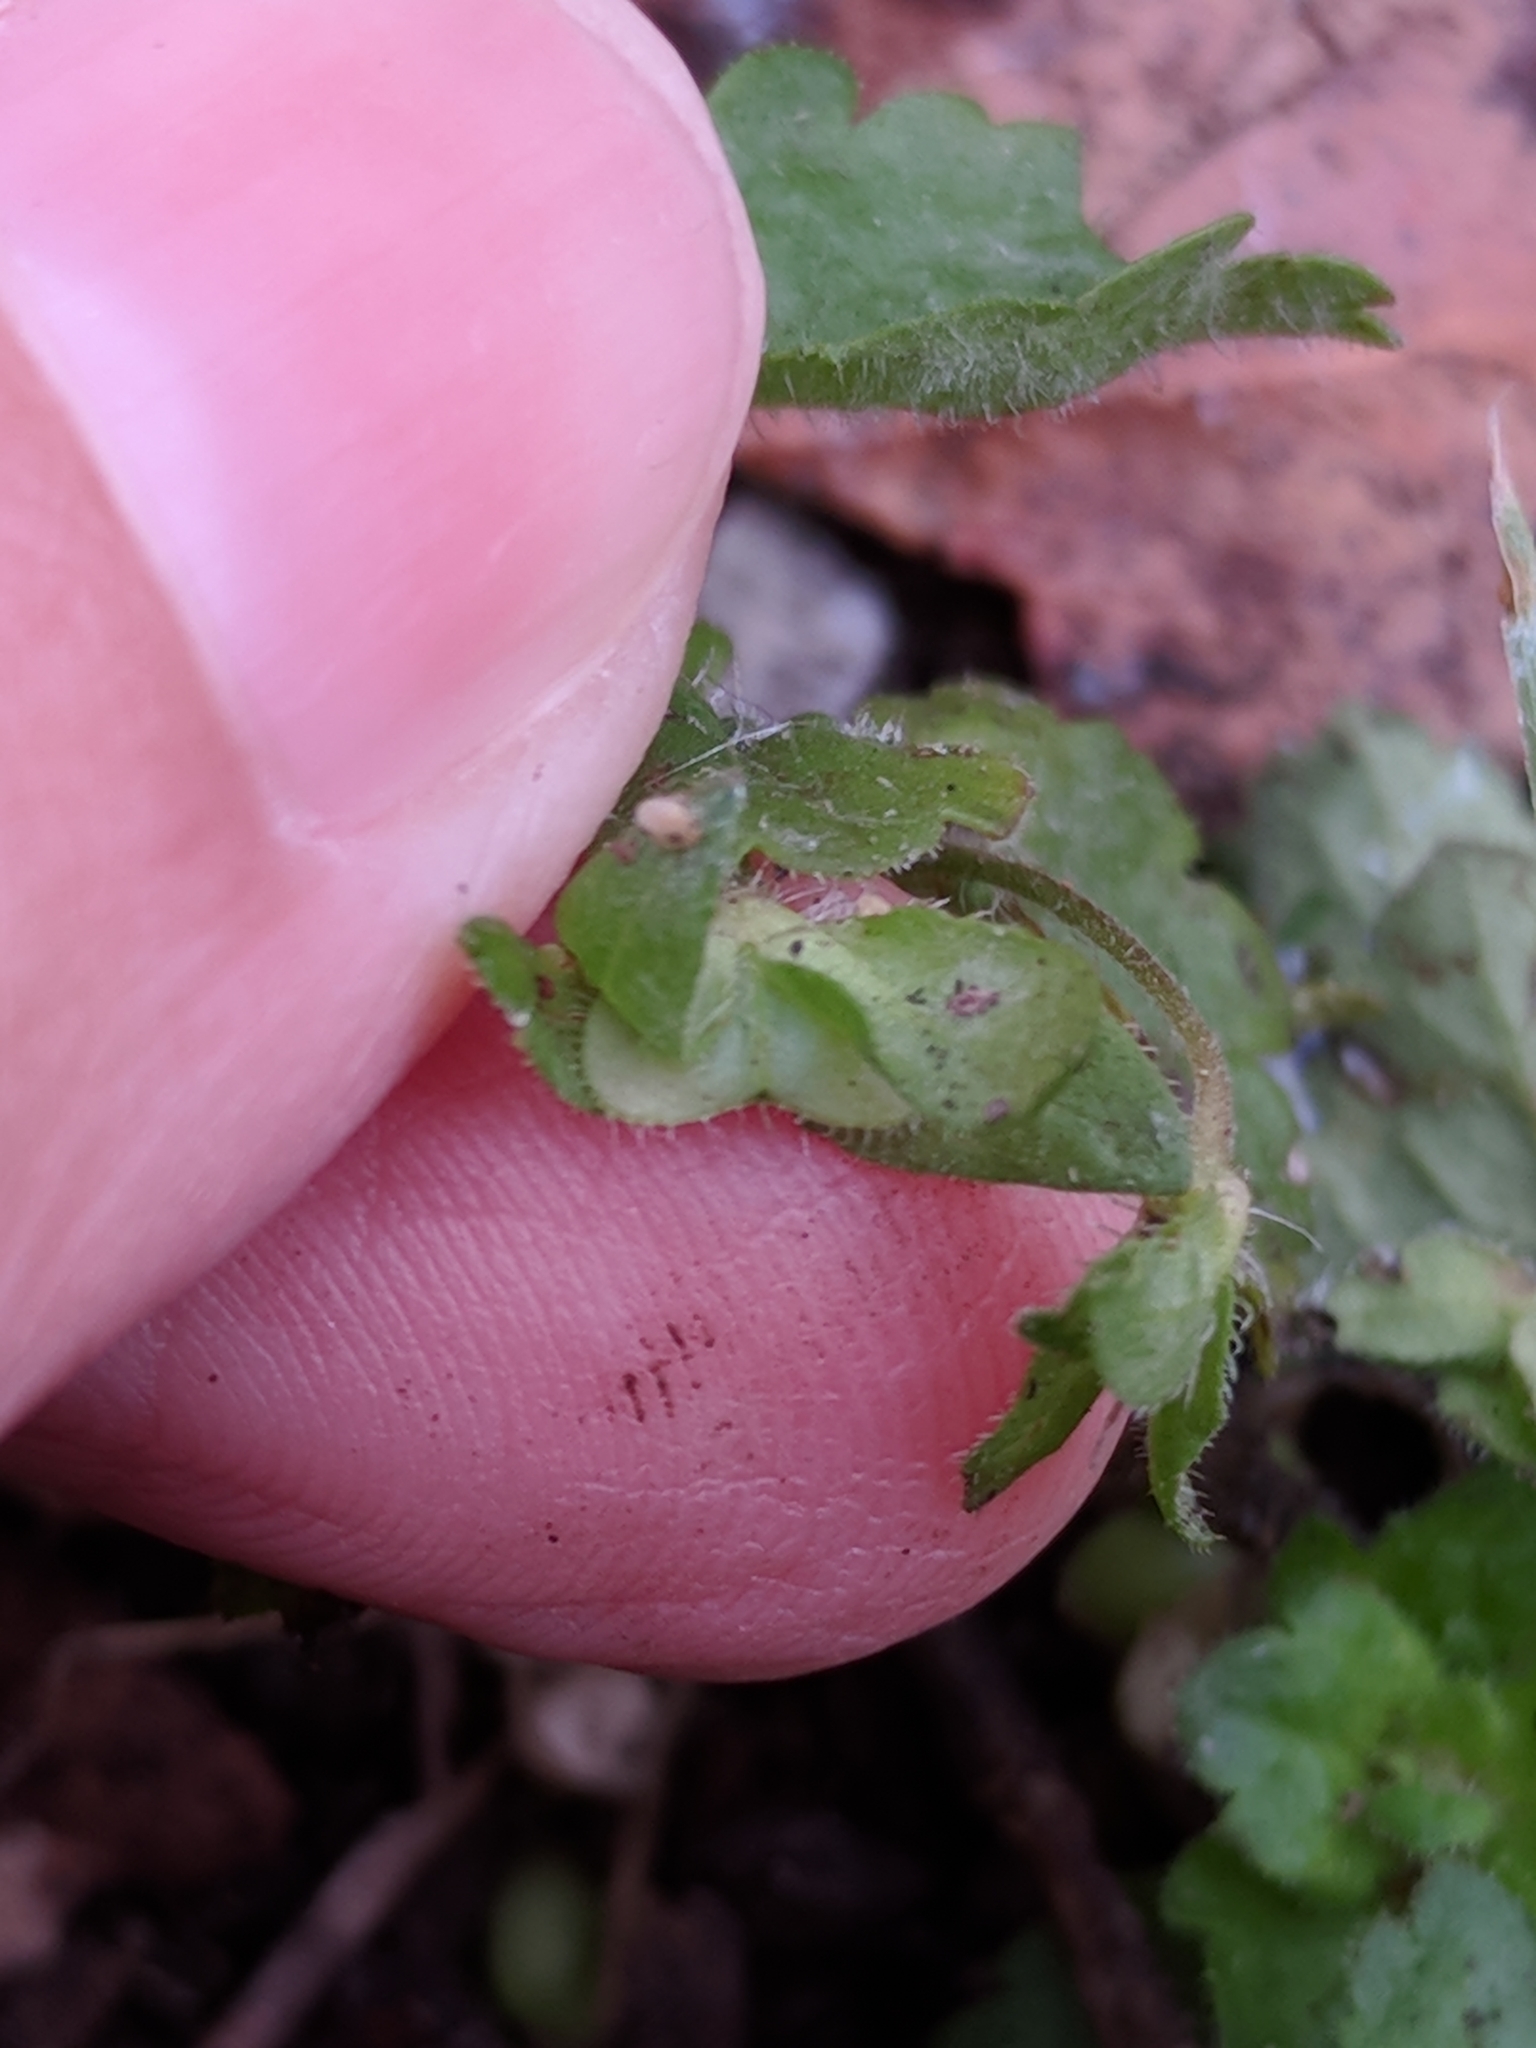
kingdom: Plantae
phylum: Tracheophyta
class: Magnoliopsida
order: Lamiales
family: Plantaginaceae
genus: Veronica
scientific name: Veronica persica
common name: Common field-speedwell
